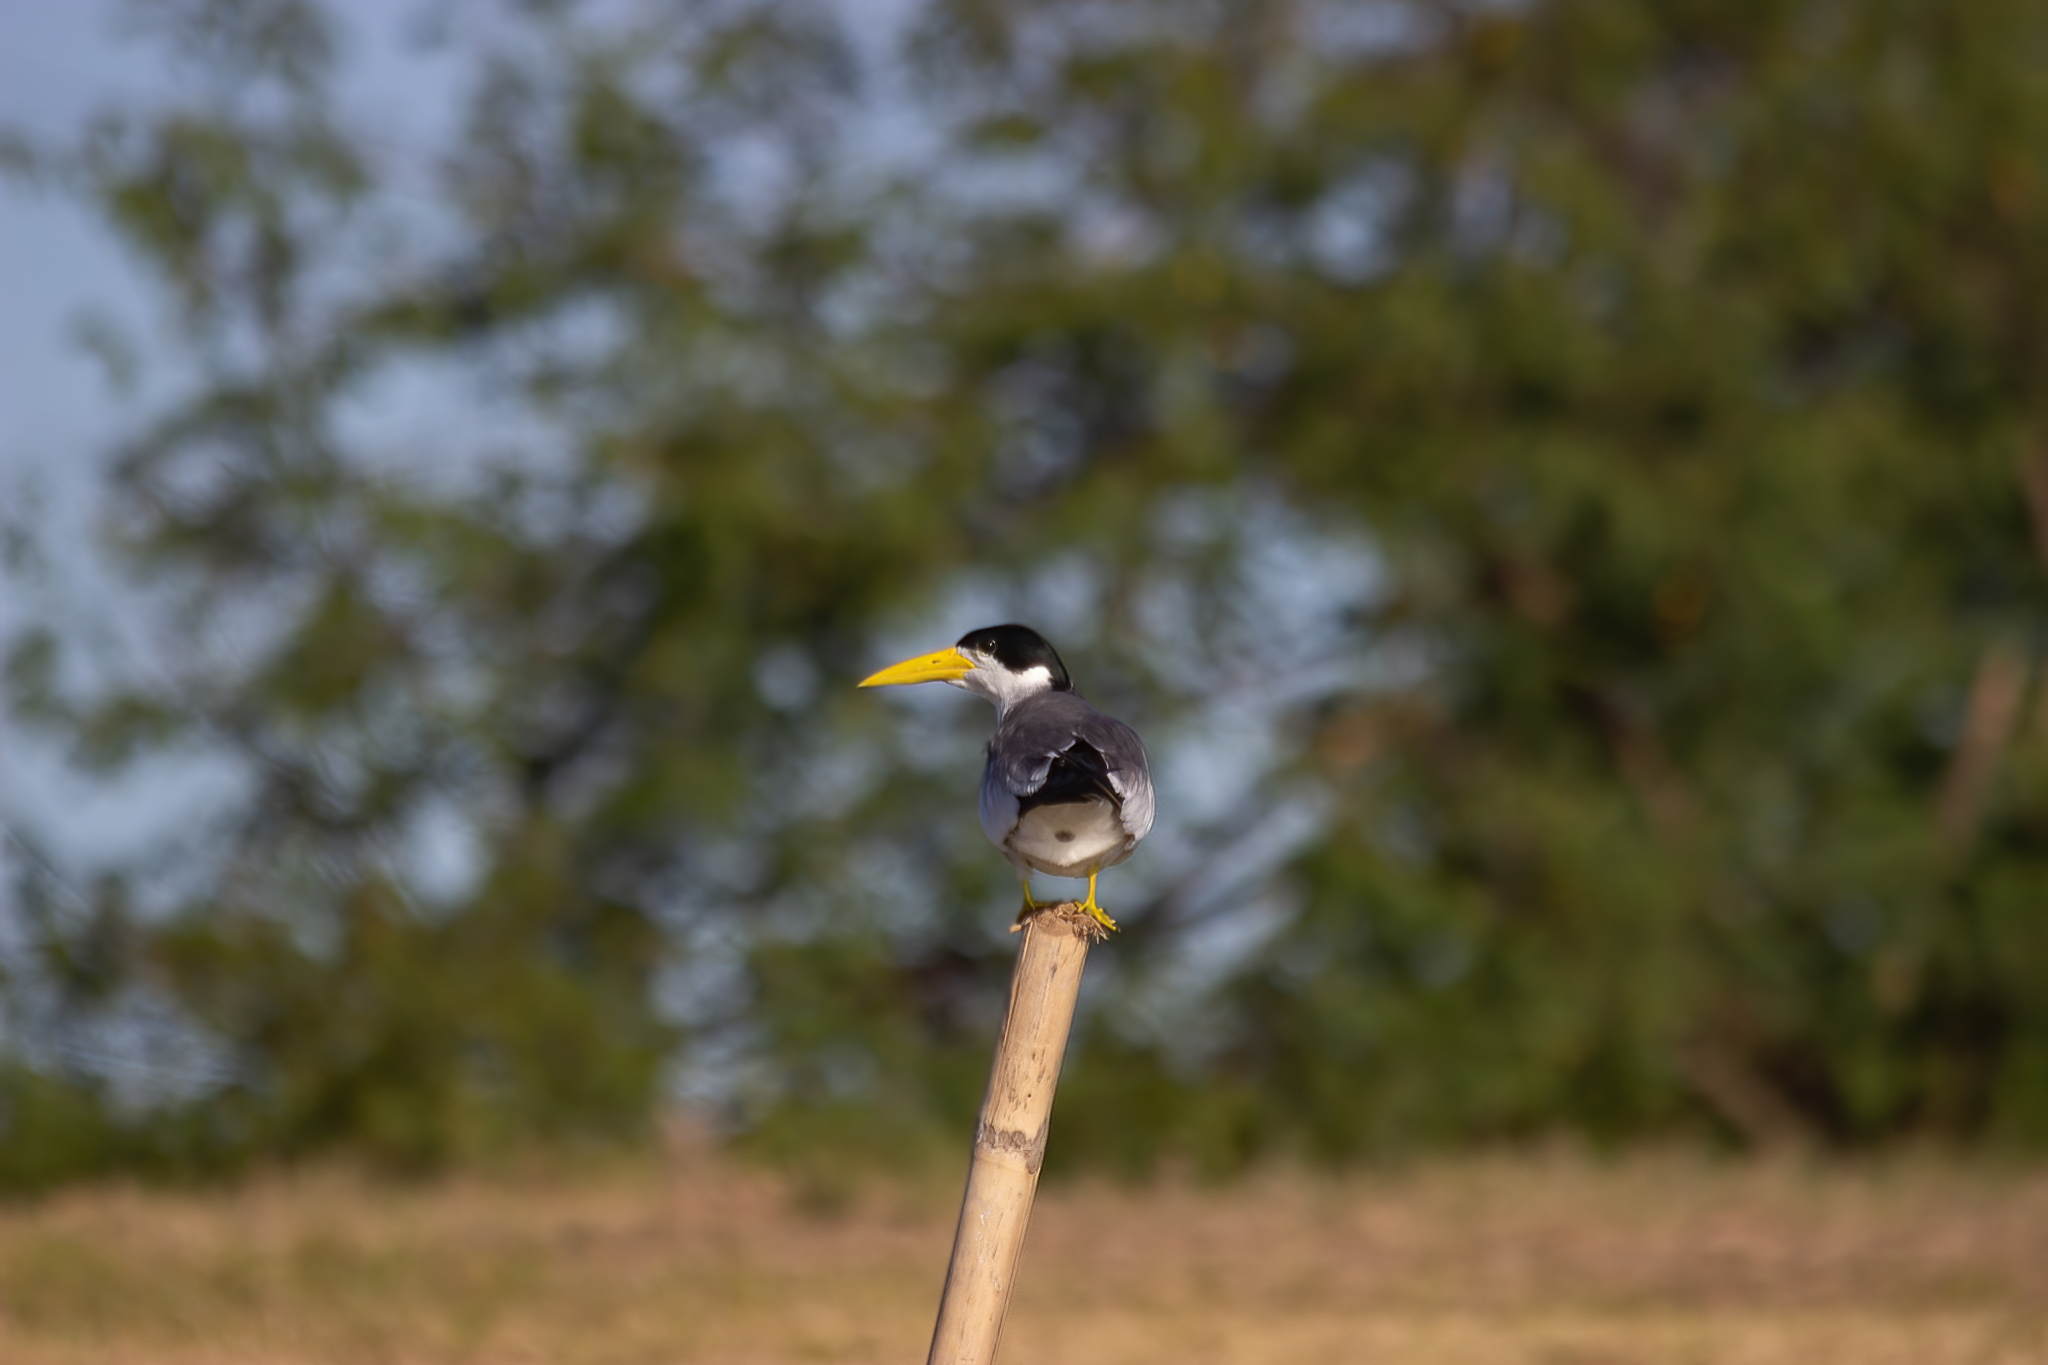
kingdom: Animalia
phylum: Chordata
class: Aves
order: Charadriiformes
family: Laridae
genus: Phaetusa
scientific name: Phaetusa simplex
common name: Large-billed tern
